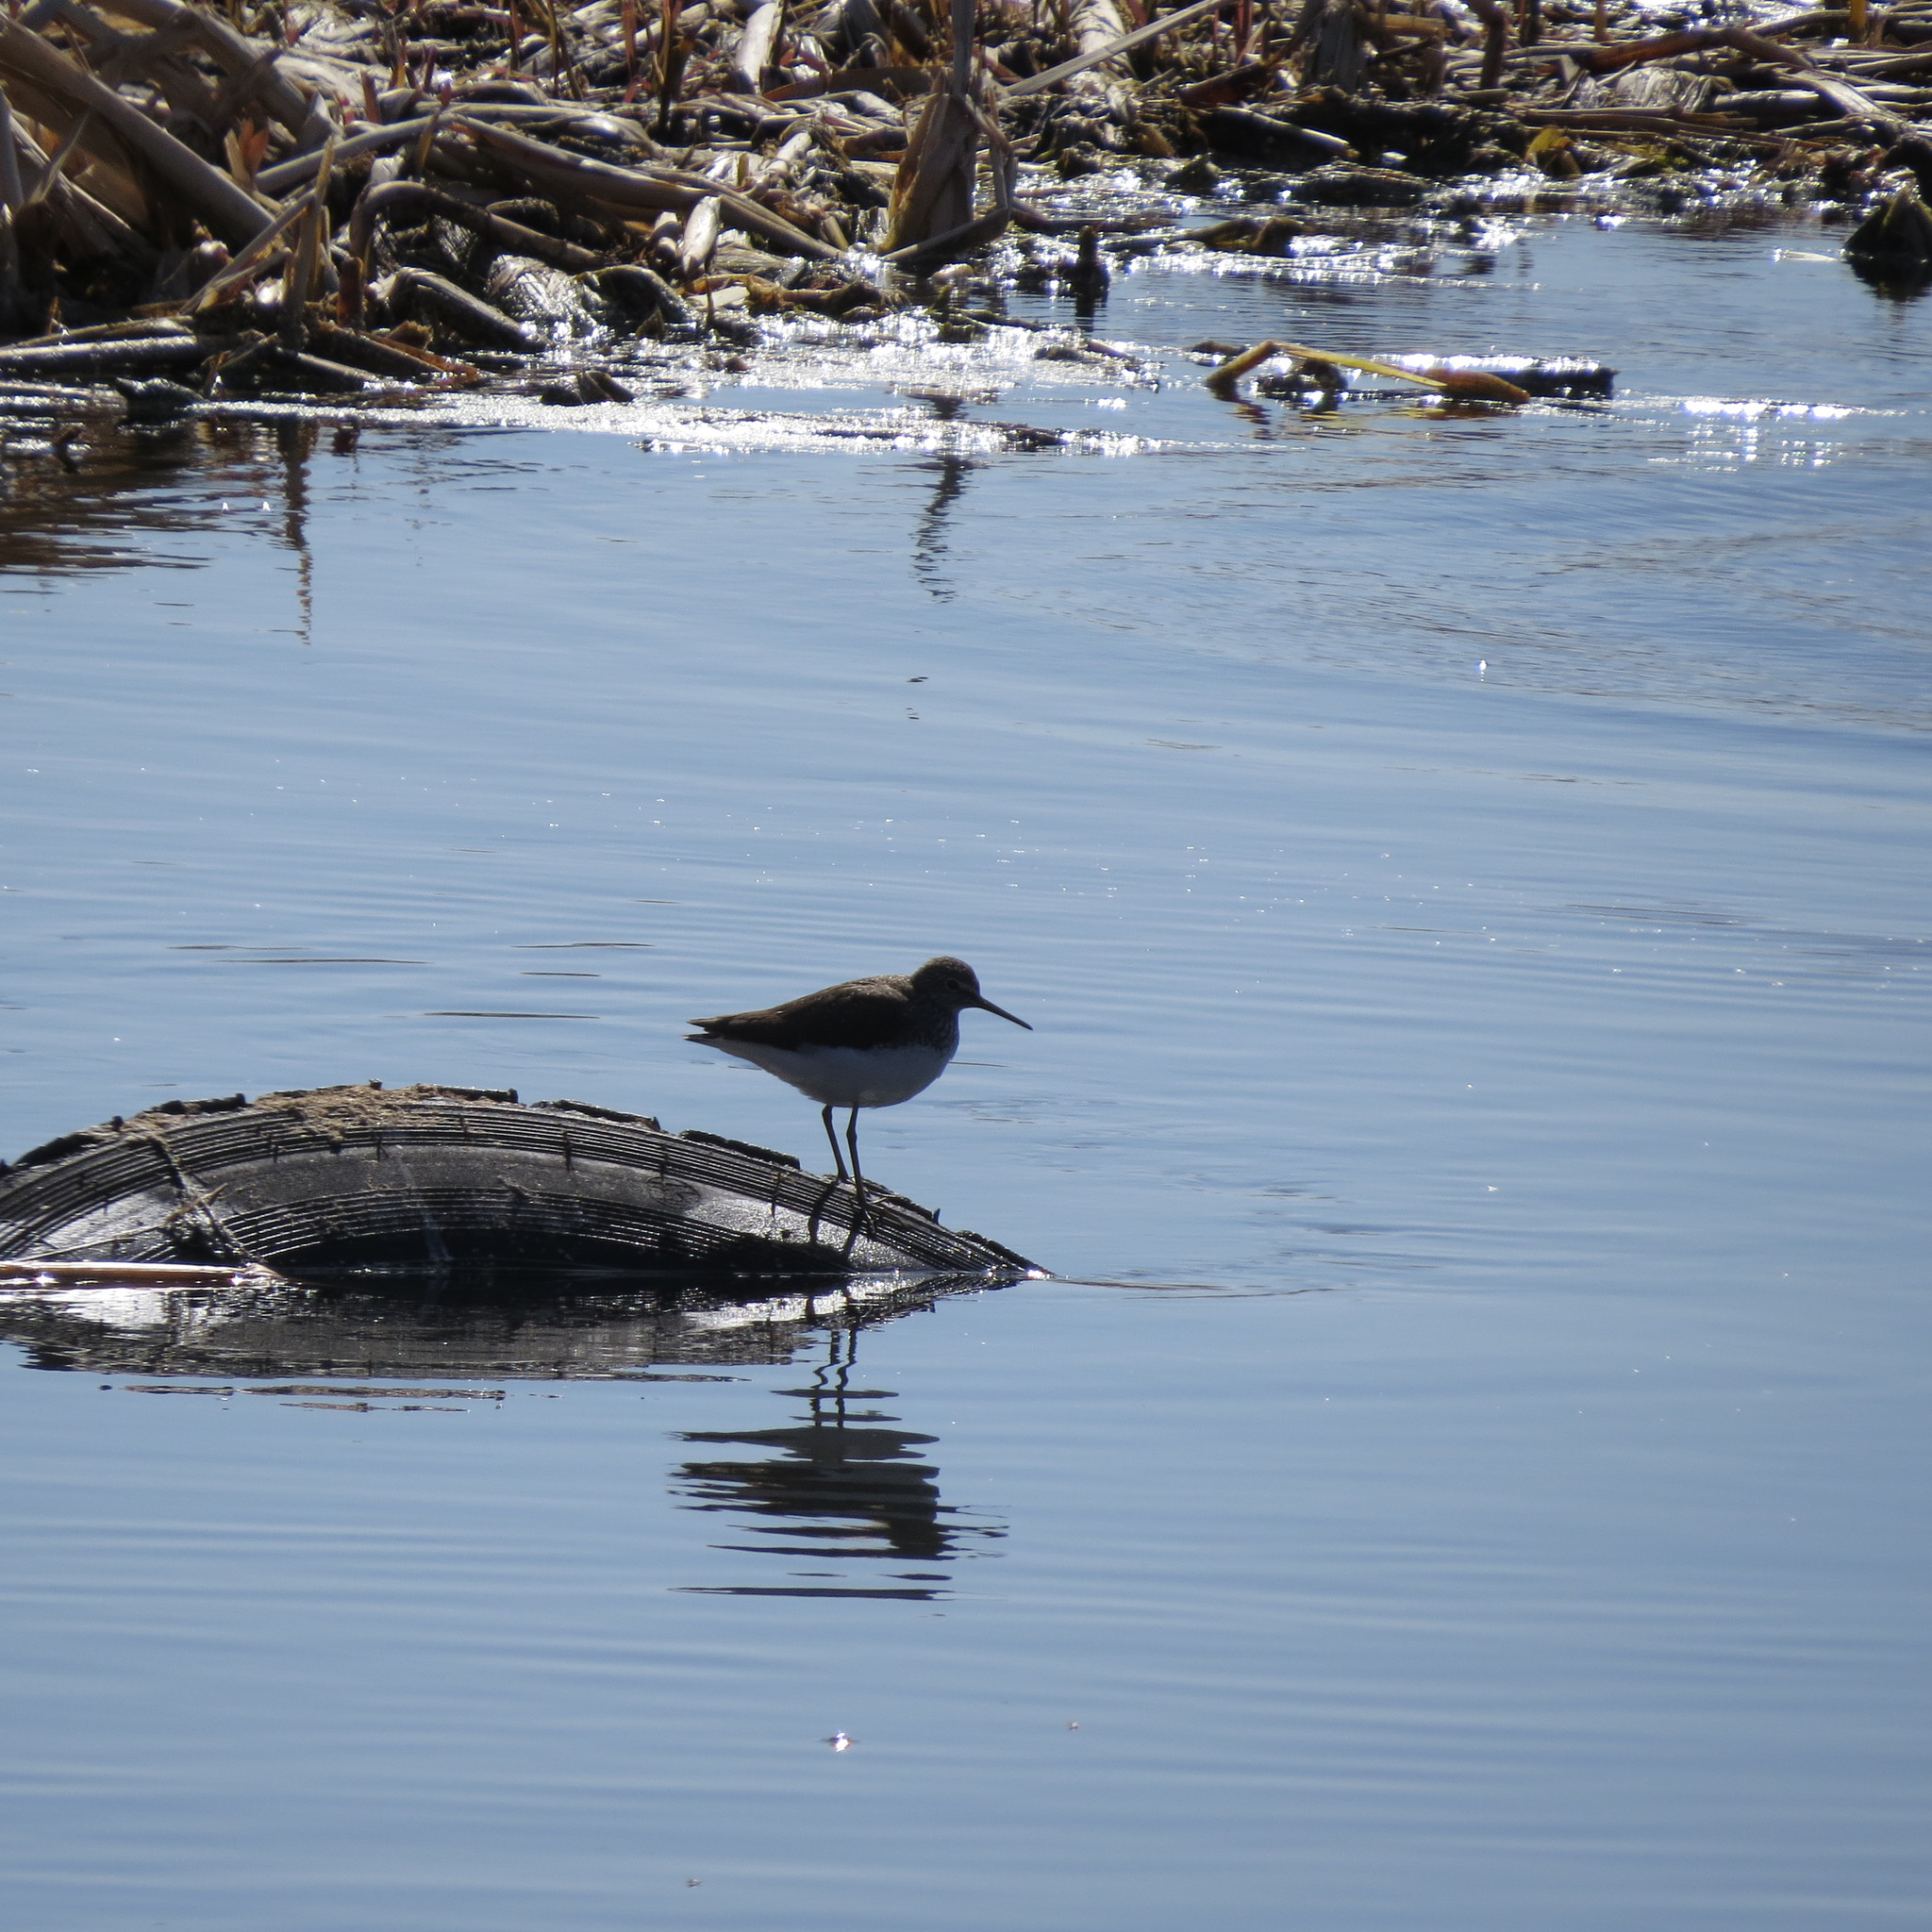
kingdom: Animalia
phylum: Chordata
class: Aves
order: Charadriiformes
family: Scolopacidae
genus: Tringa
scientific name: Tringa ochropus
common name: Green sandpiper
